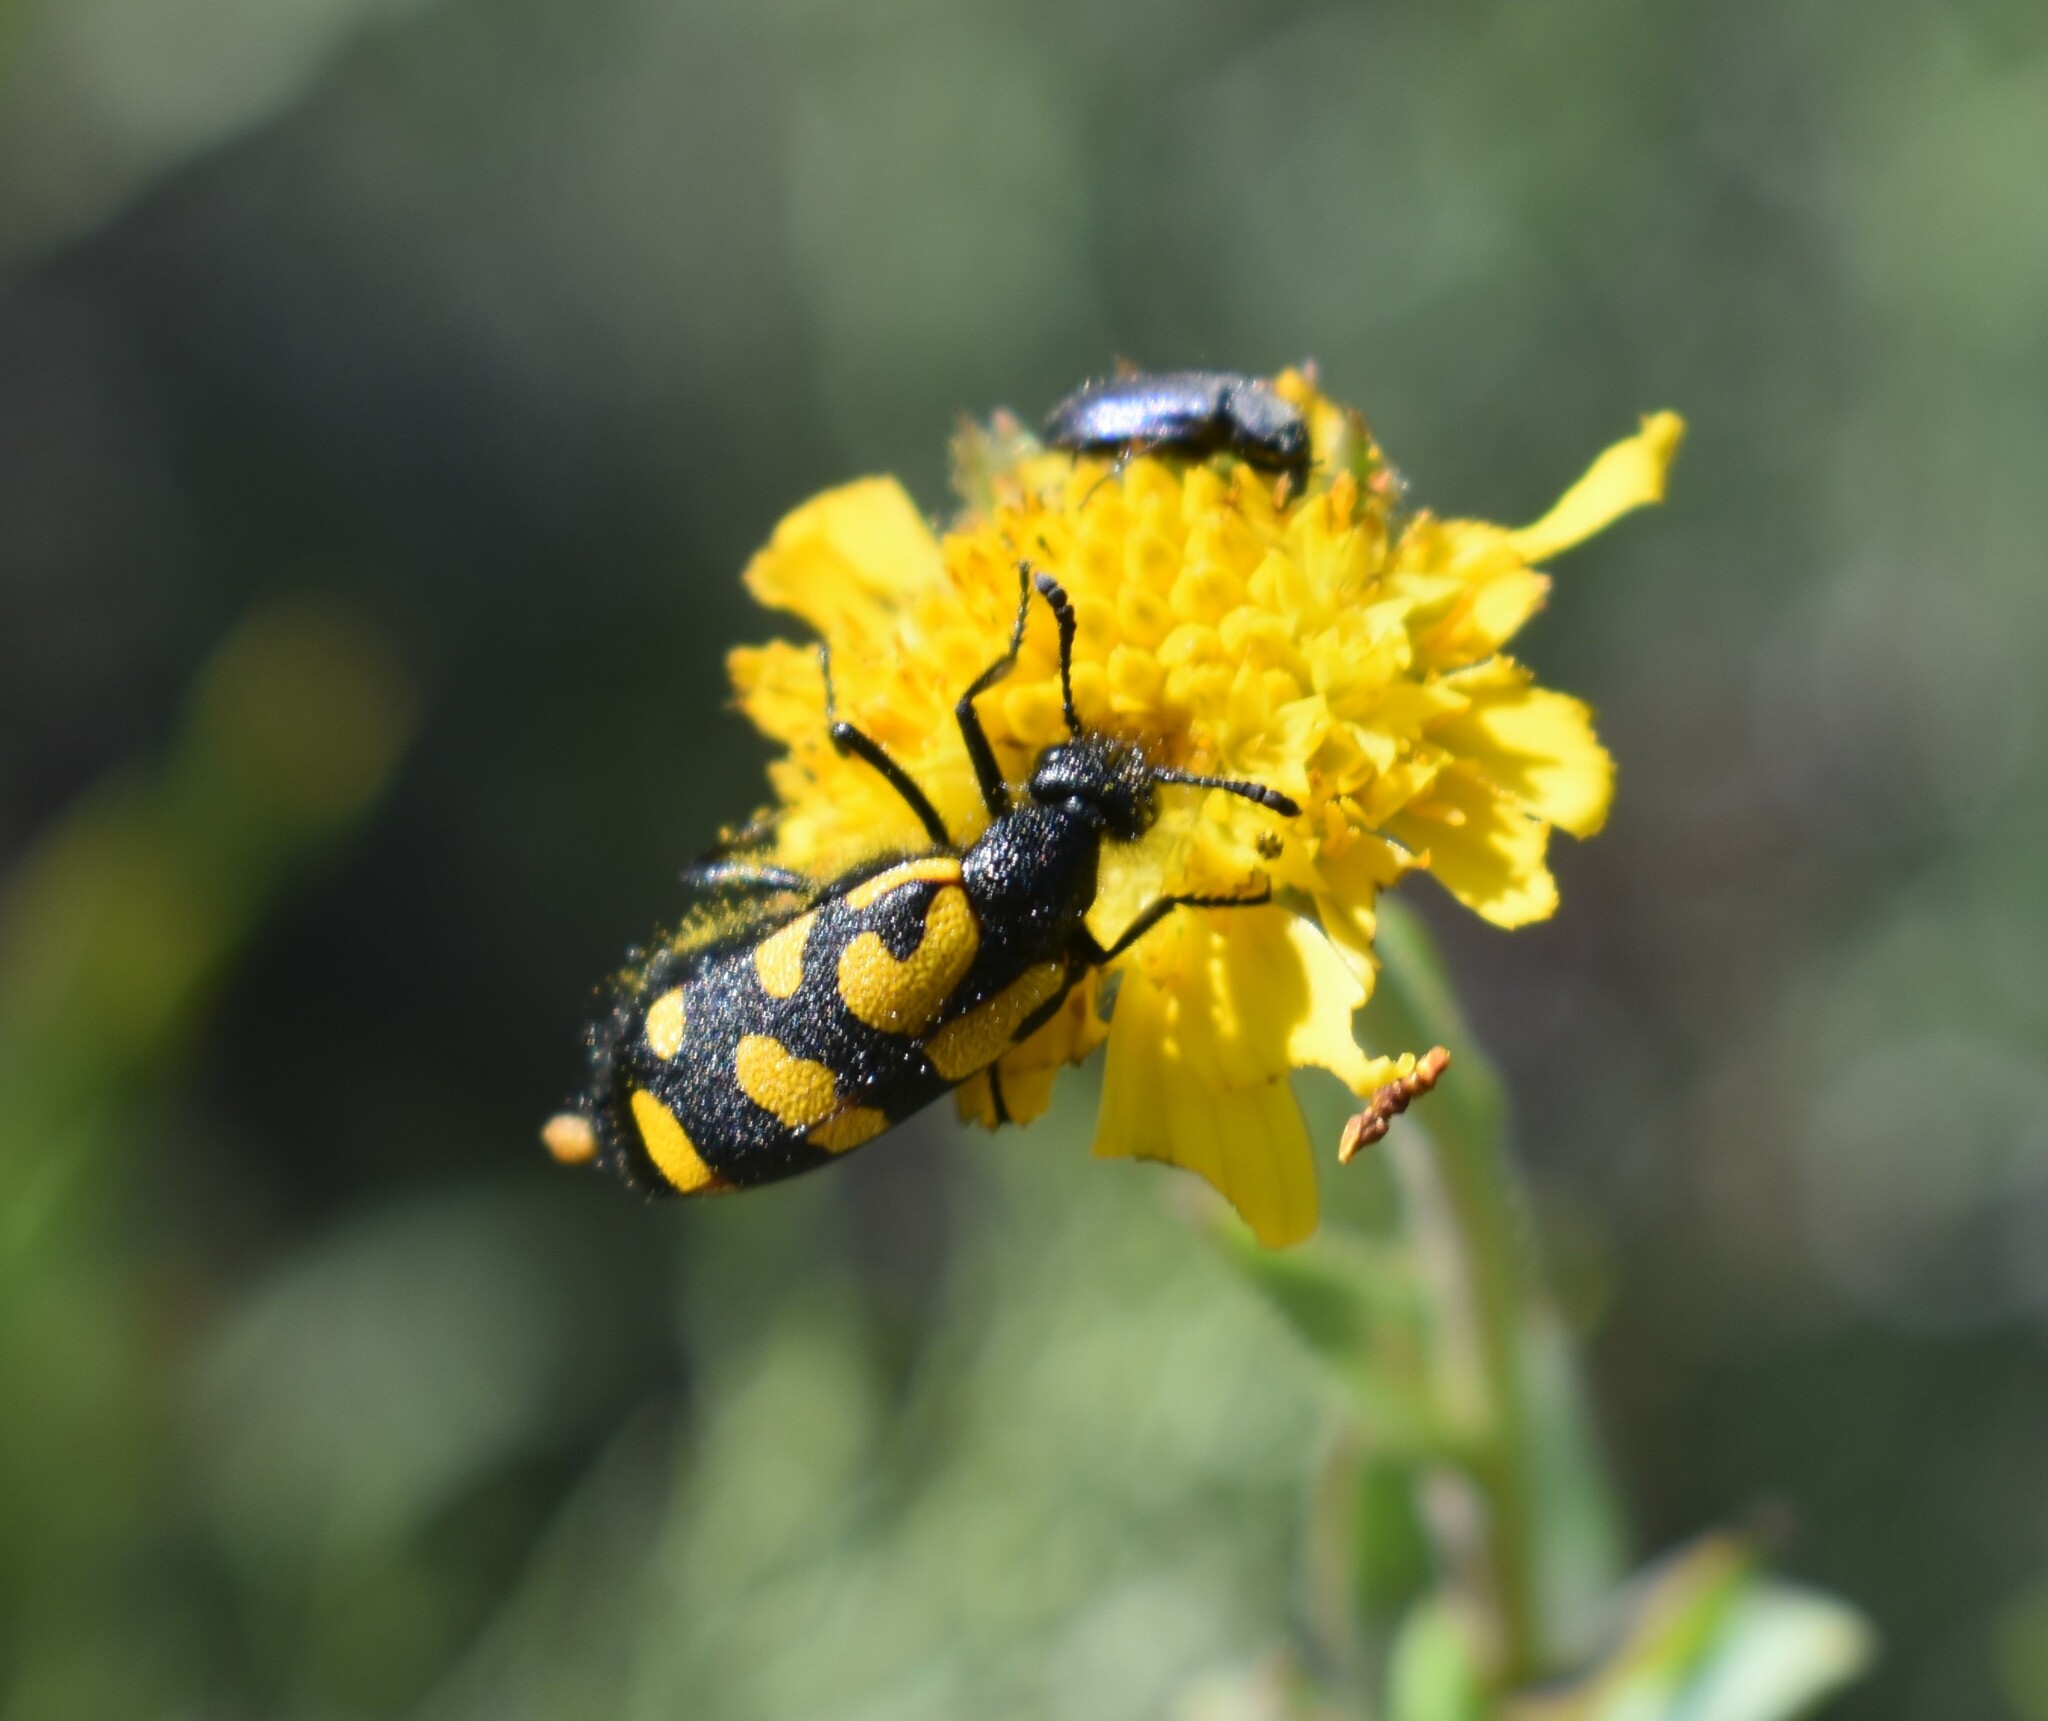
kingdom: Animalia
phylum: Arthropoda
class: Insecta
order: Coleoptera
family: Meloidae
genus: Ceroctis
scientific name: Ceroctis capensis
